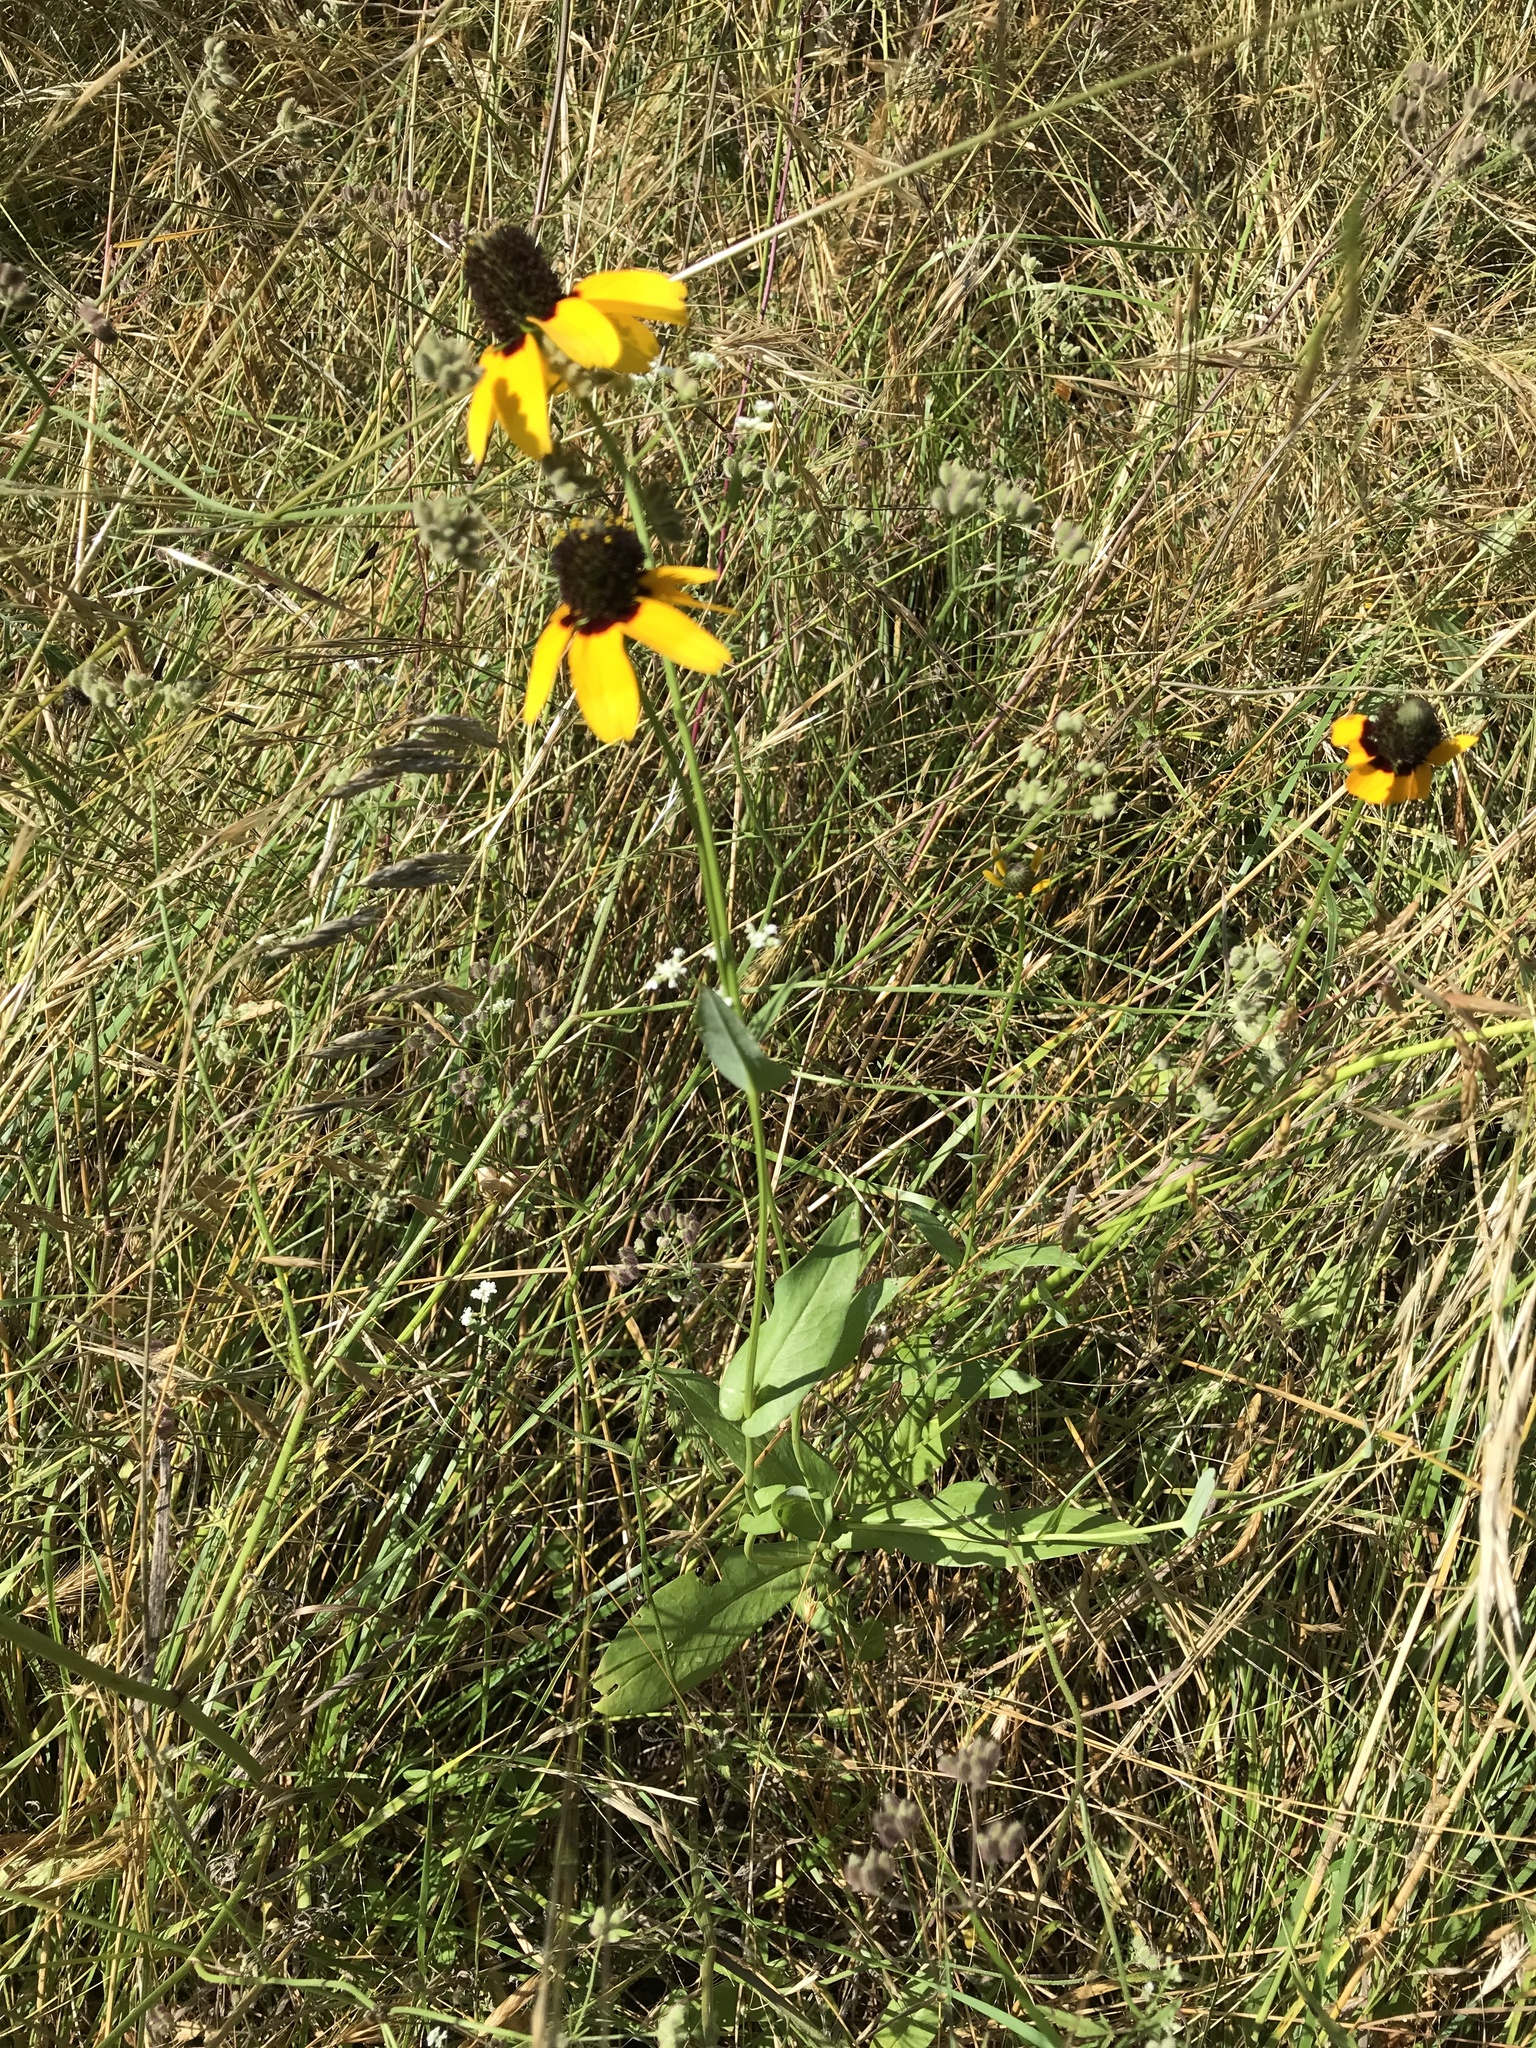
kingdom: Plantae
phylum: Tracheophyta
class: Magnoliopsida
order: Asterales
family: Asteraceae
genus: Rudbeckia
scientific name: Rudbeckia amplexicaulis
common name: Clasping-leaf coneflower
